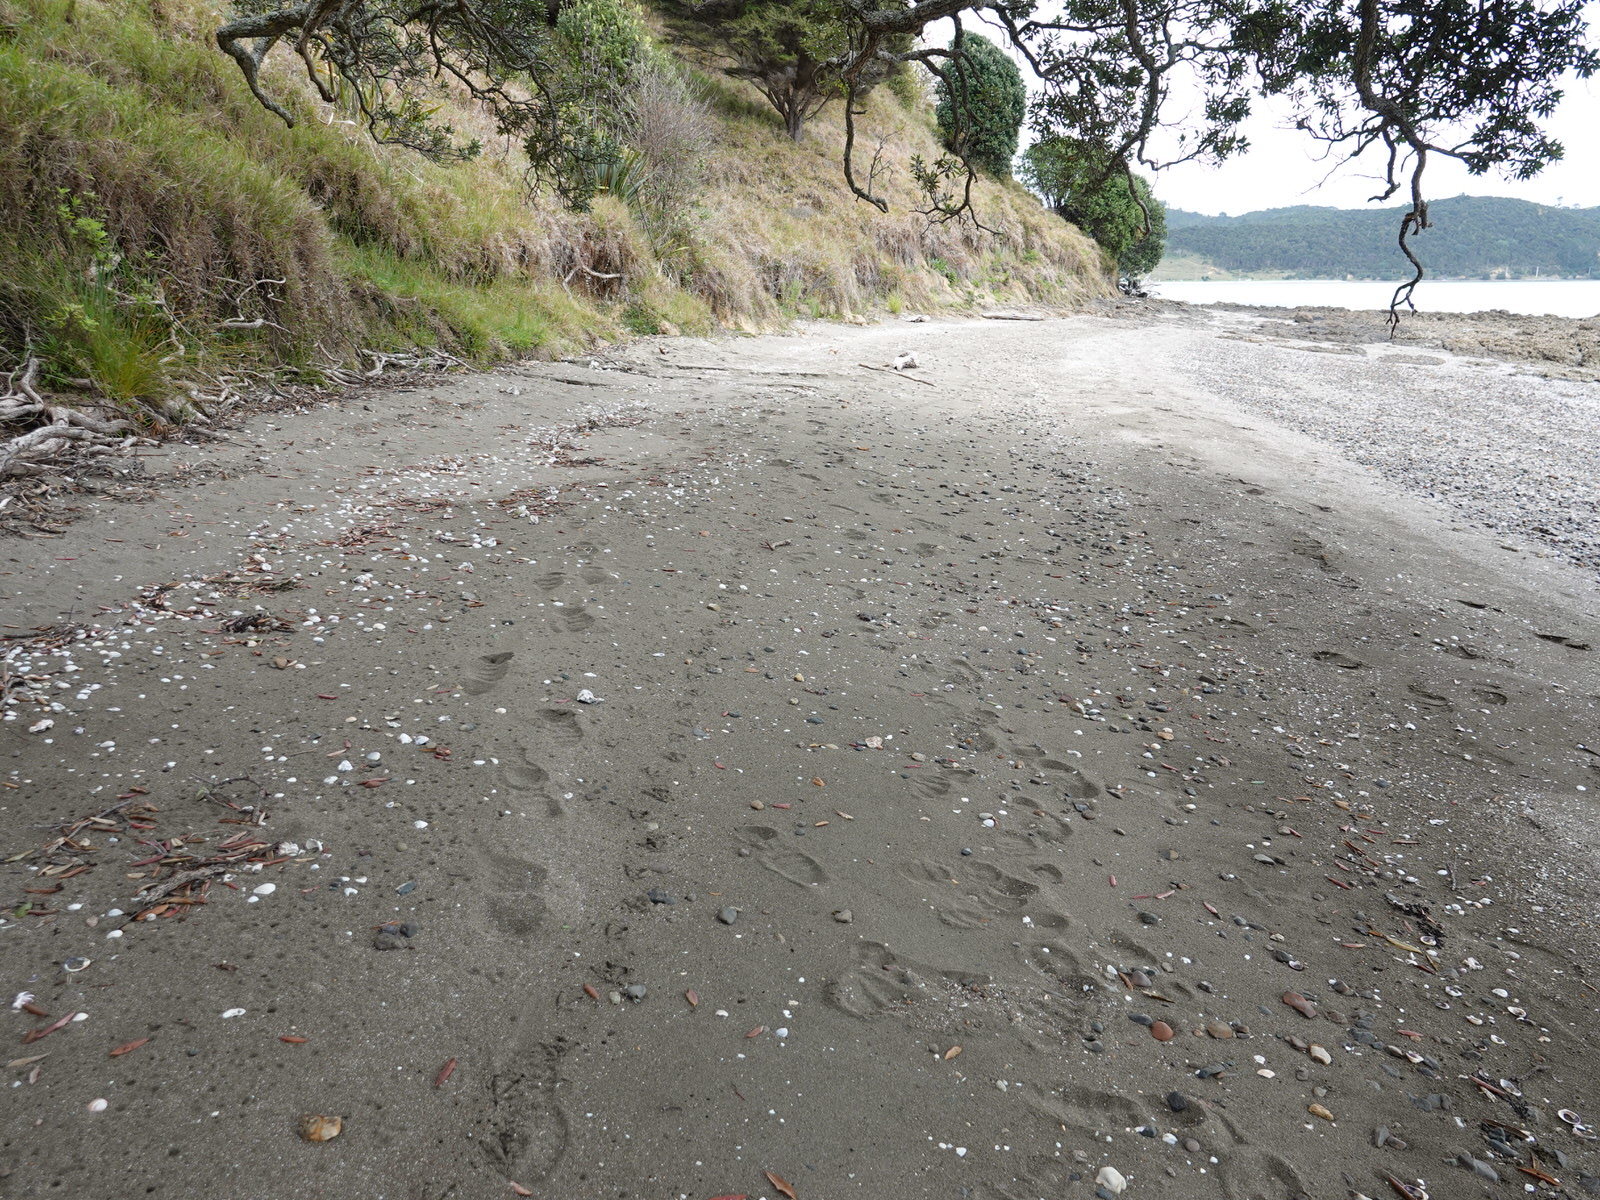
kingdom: Animalia
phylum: Chordata
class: Aves
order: Sphenisciformes
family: Spheniscidae
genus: Eudyptula
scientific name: Eudyptula minor
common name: Little penguin
